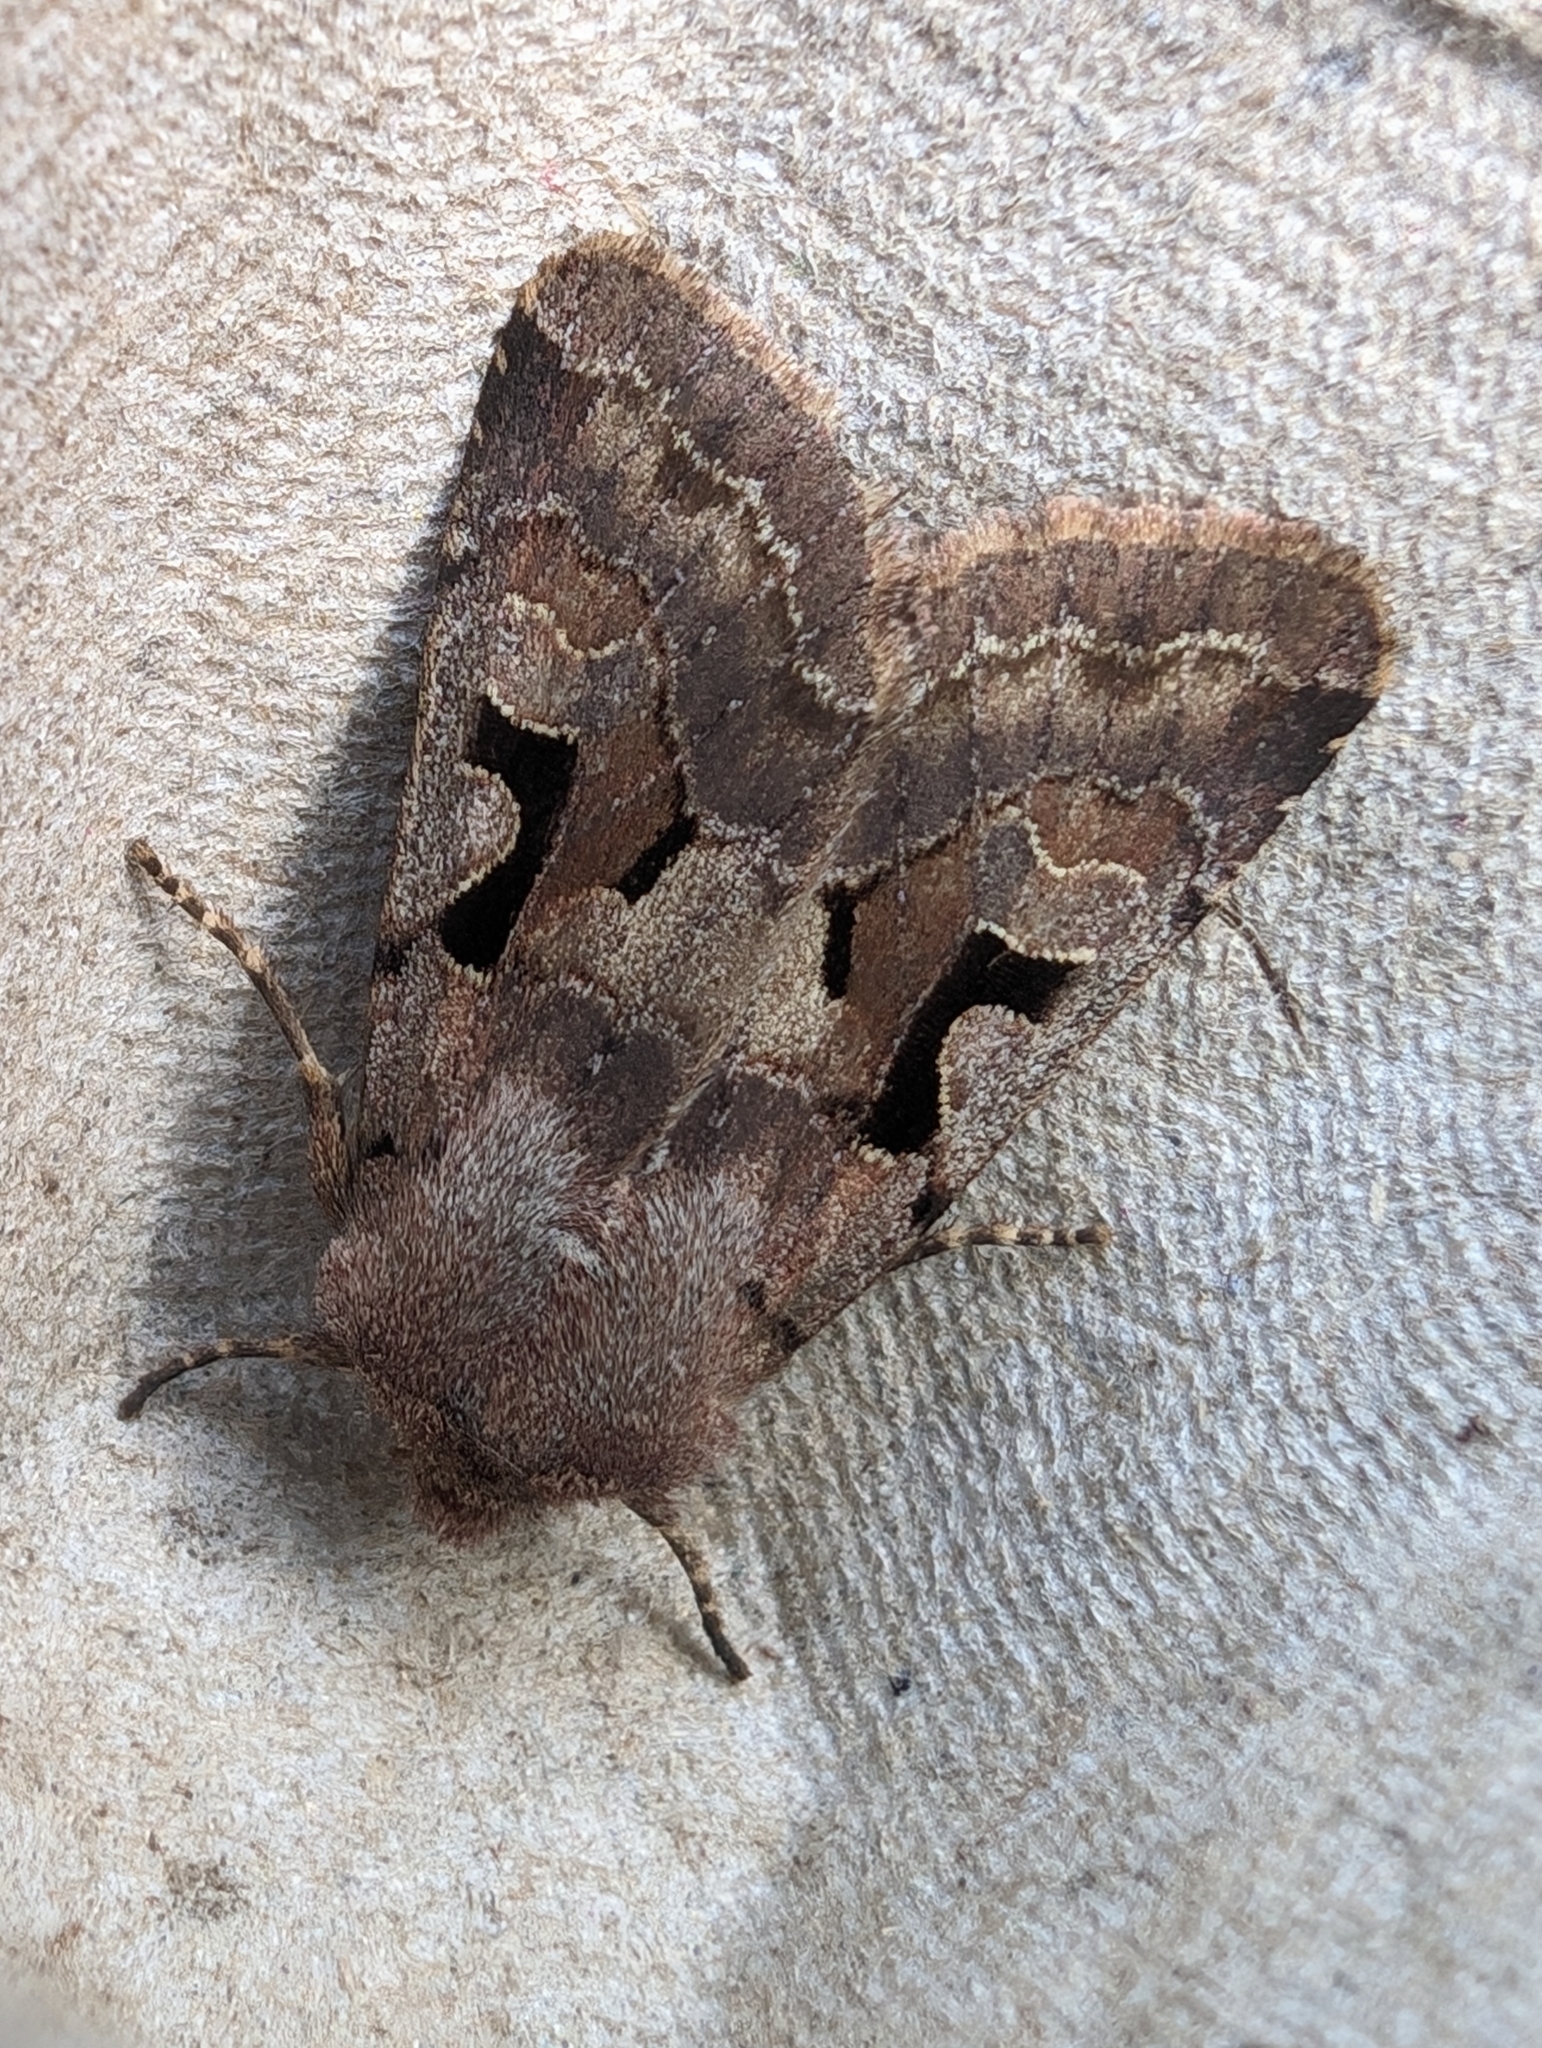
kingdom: Animalia
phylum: Arthropoda
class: Insecta
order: Lepidoptera
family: Noctuidae
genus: Orthosia
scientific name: Orthosia gothica
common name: Hebrew character
